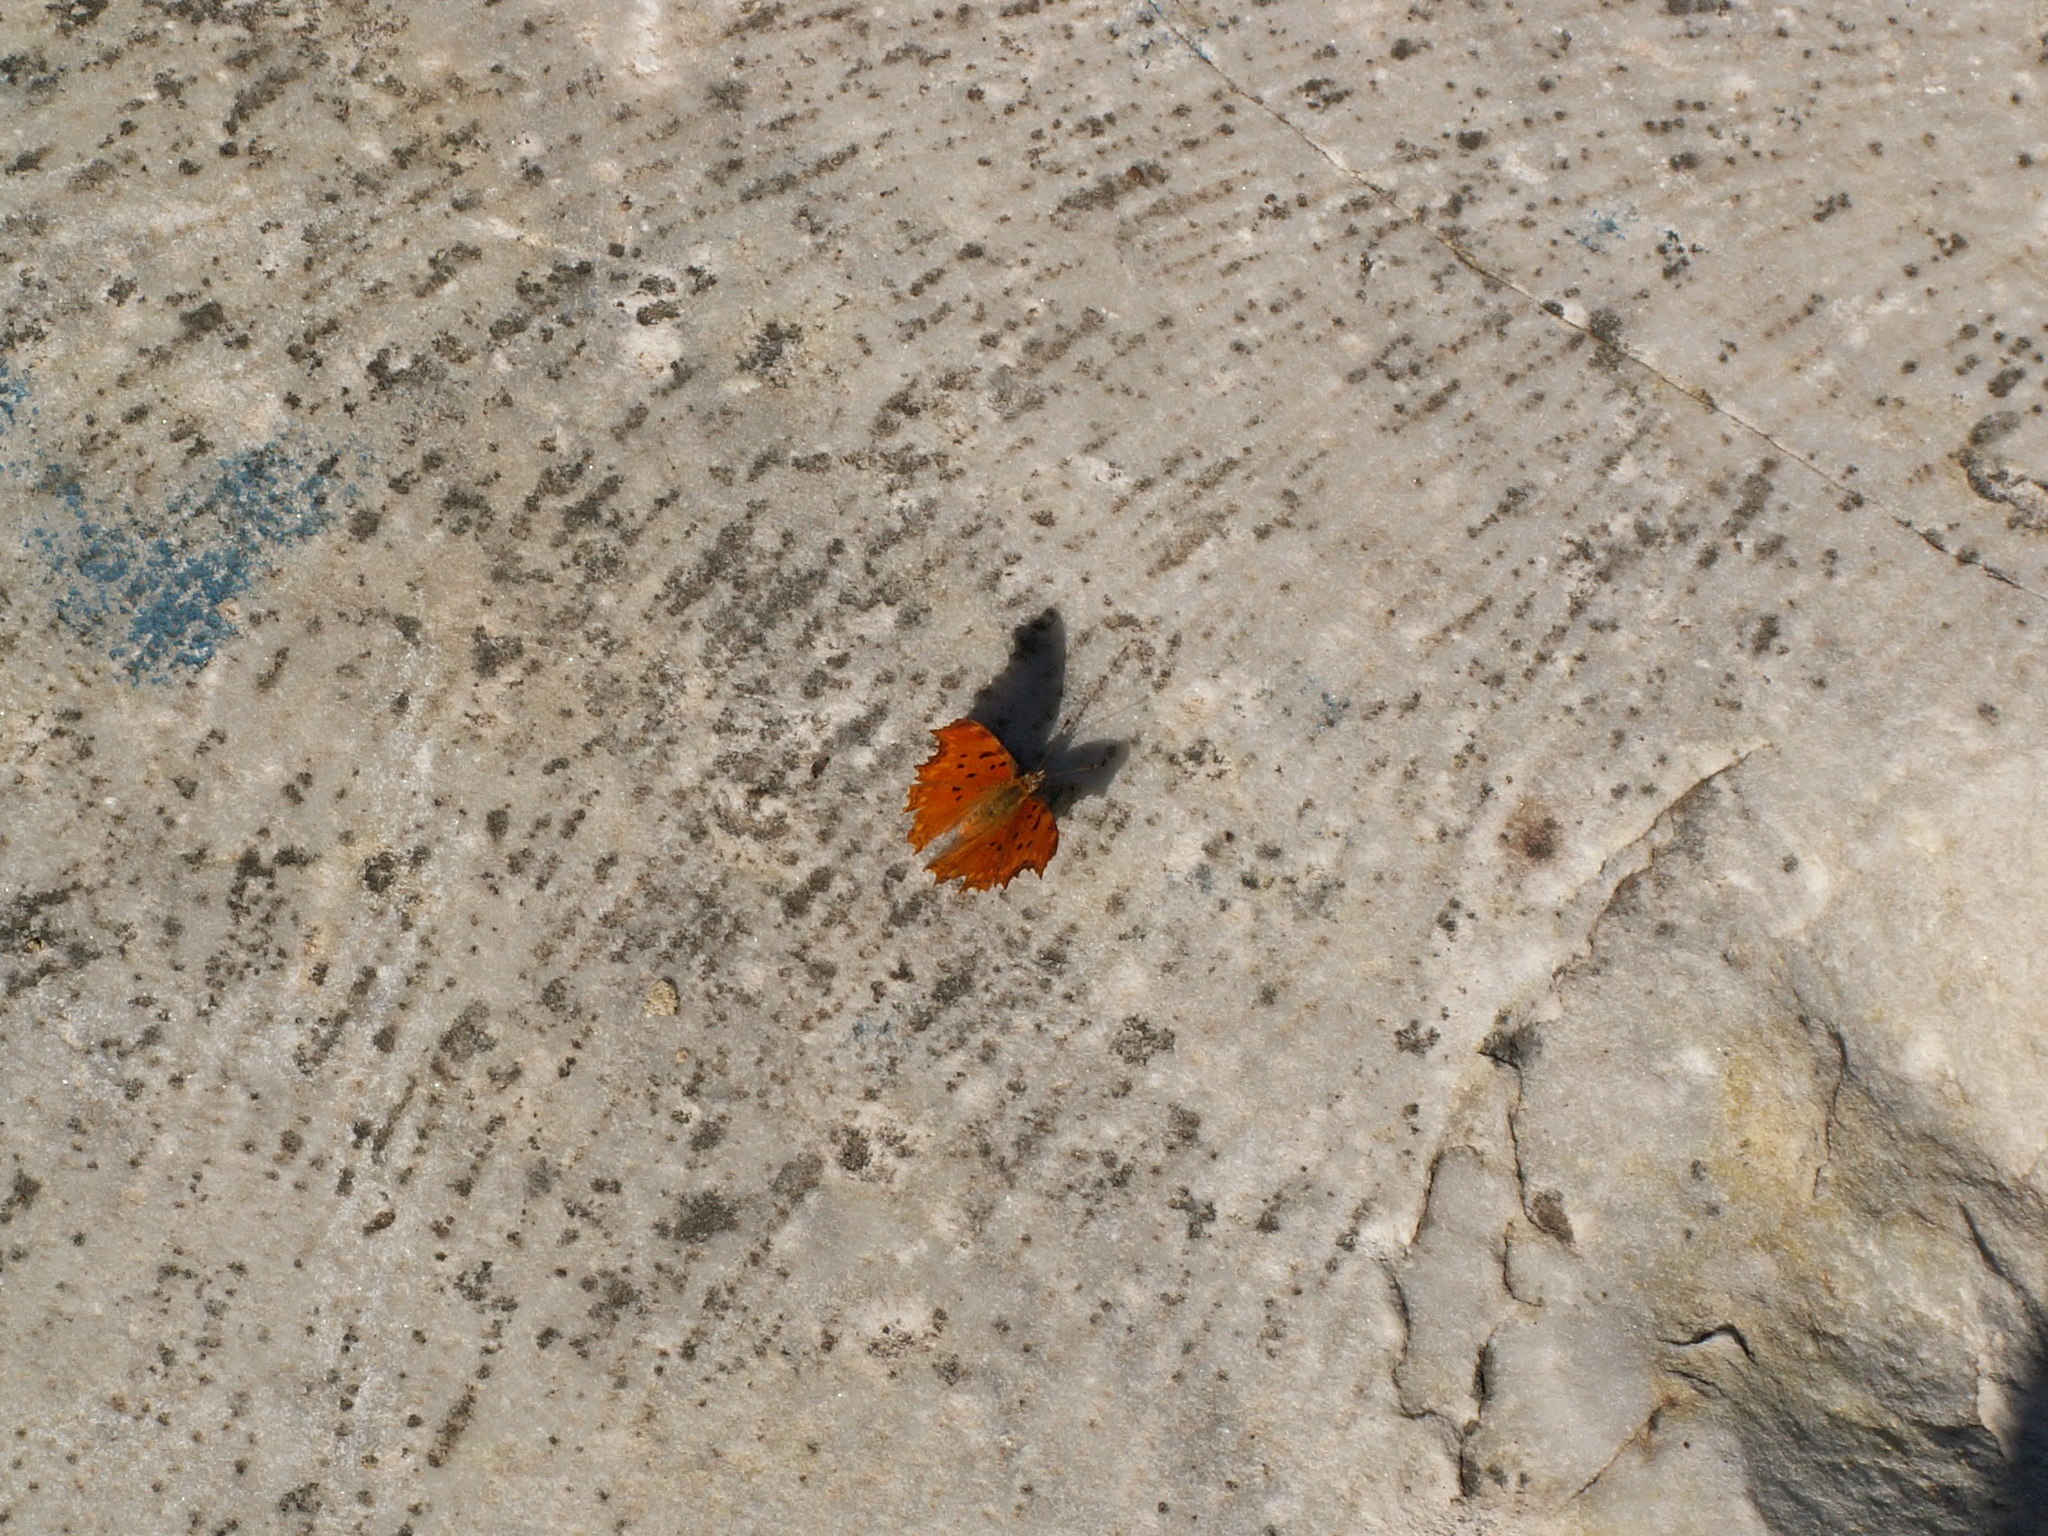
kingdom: Animalia
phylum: Arthropoda
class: Insecta
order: Lepidoptera
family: Nymphalidae
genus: Polygonia
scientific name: Polygonia egea
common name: Southern comma
